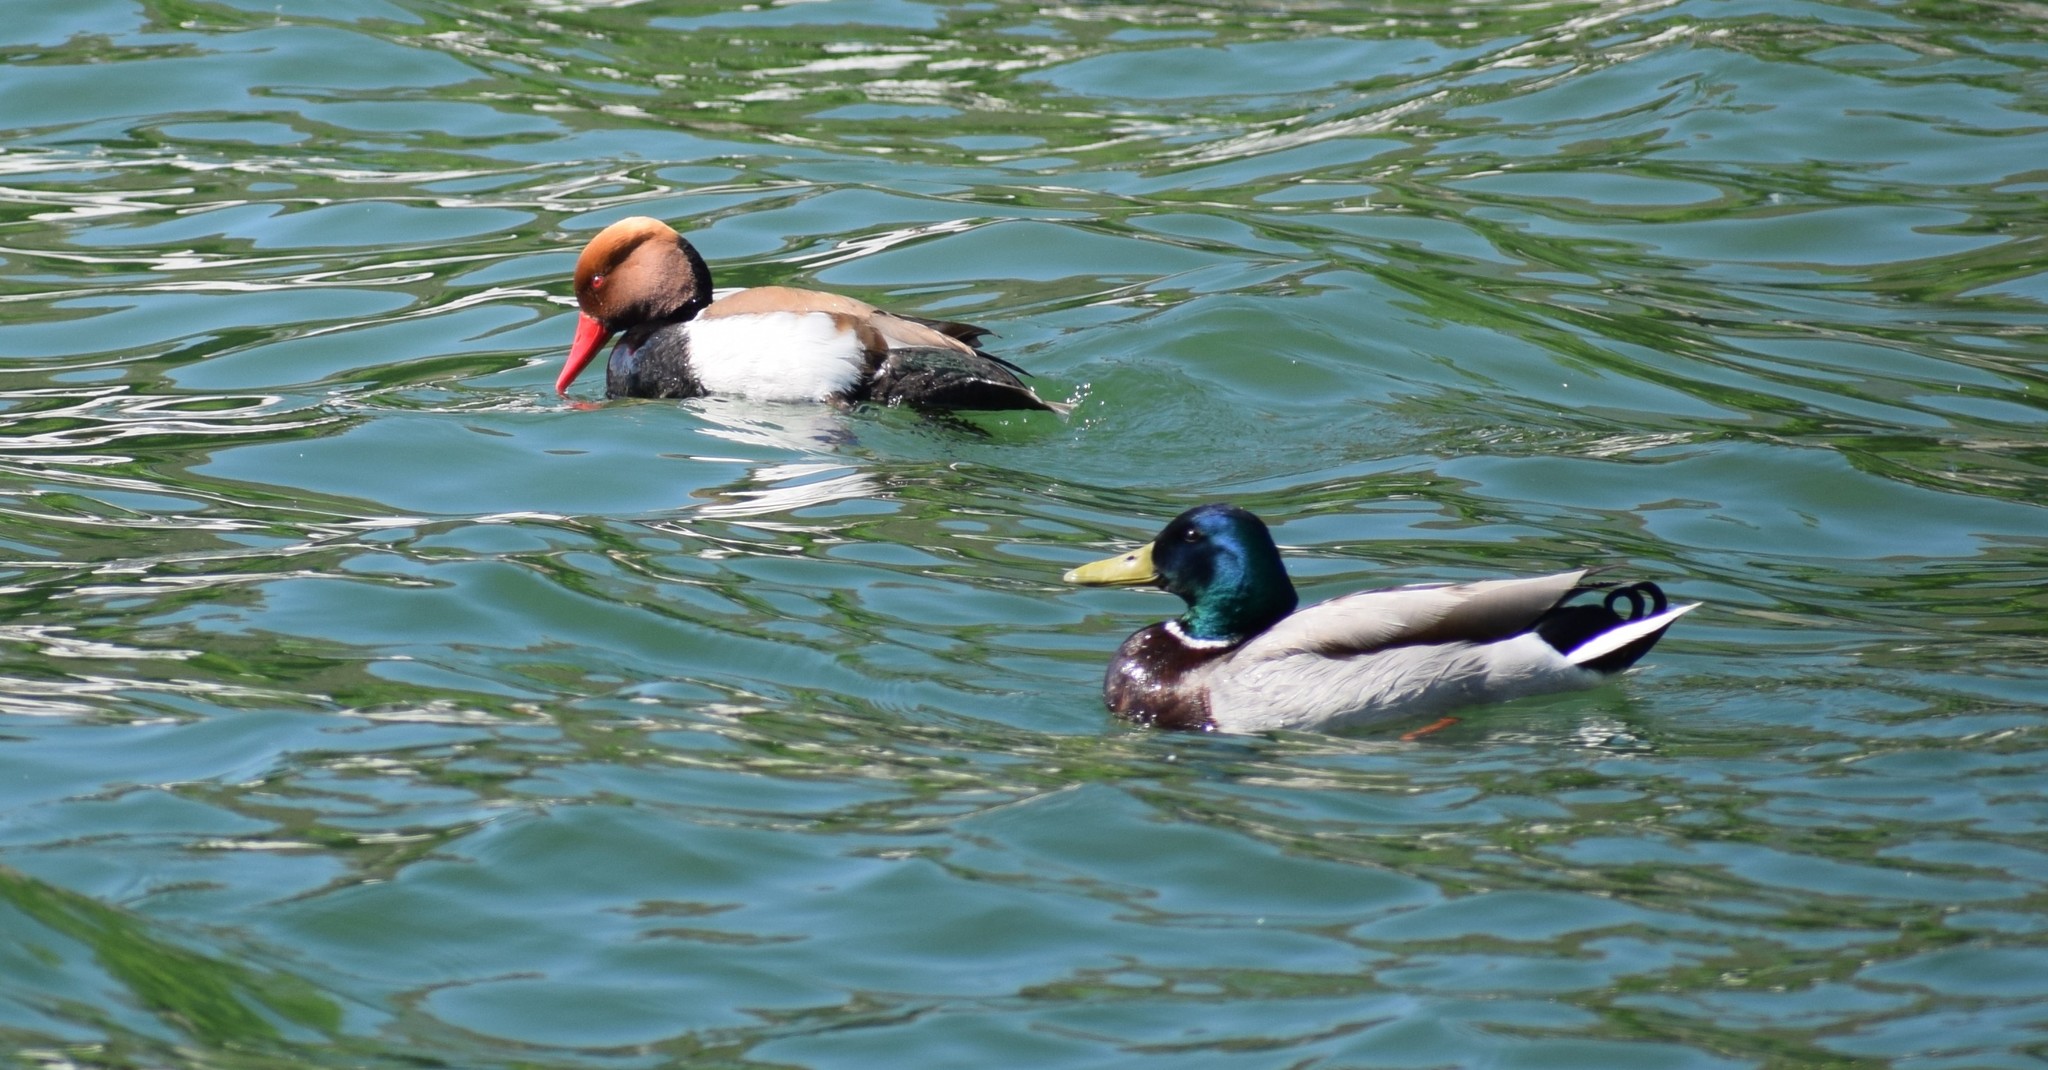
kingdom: Animalia
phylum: Chordata
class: Aves
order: Anseriformes
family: Anatidae
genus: Anas
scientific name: Anas platyrhynchos
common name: Mallard
